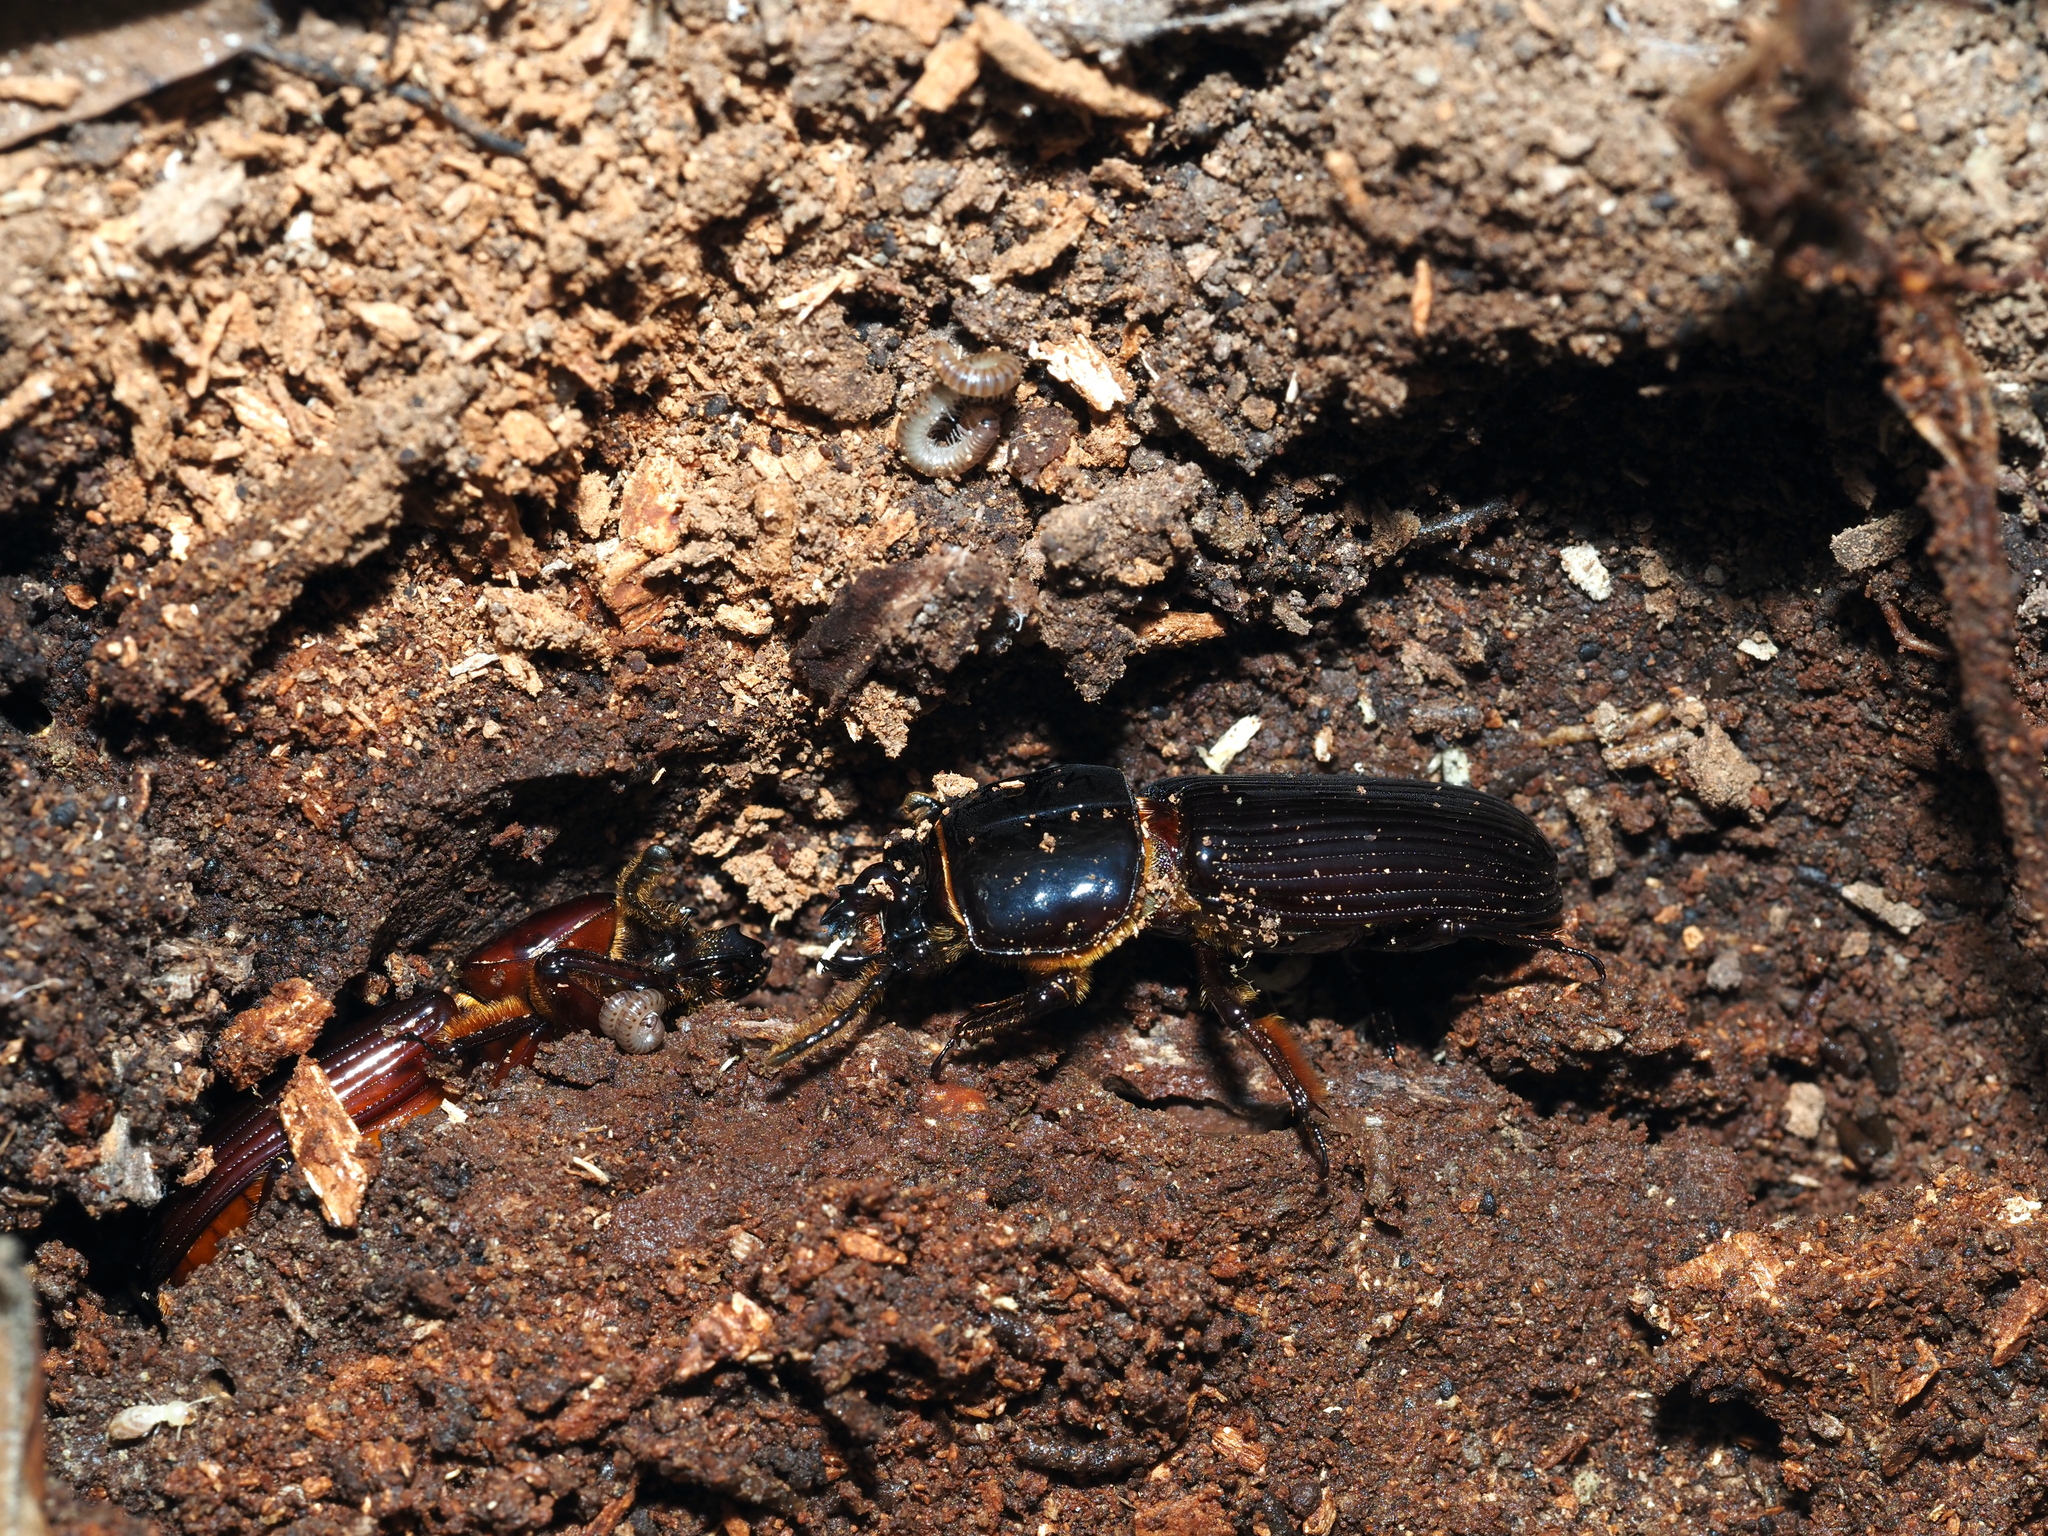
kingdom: Animalia
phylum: Arthropoda
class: Insecta
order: Coleoptera
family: Passalidae
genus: Odontotaenius
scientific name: Odontotaenius disjunctus
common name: Patent leather beetle
